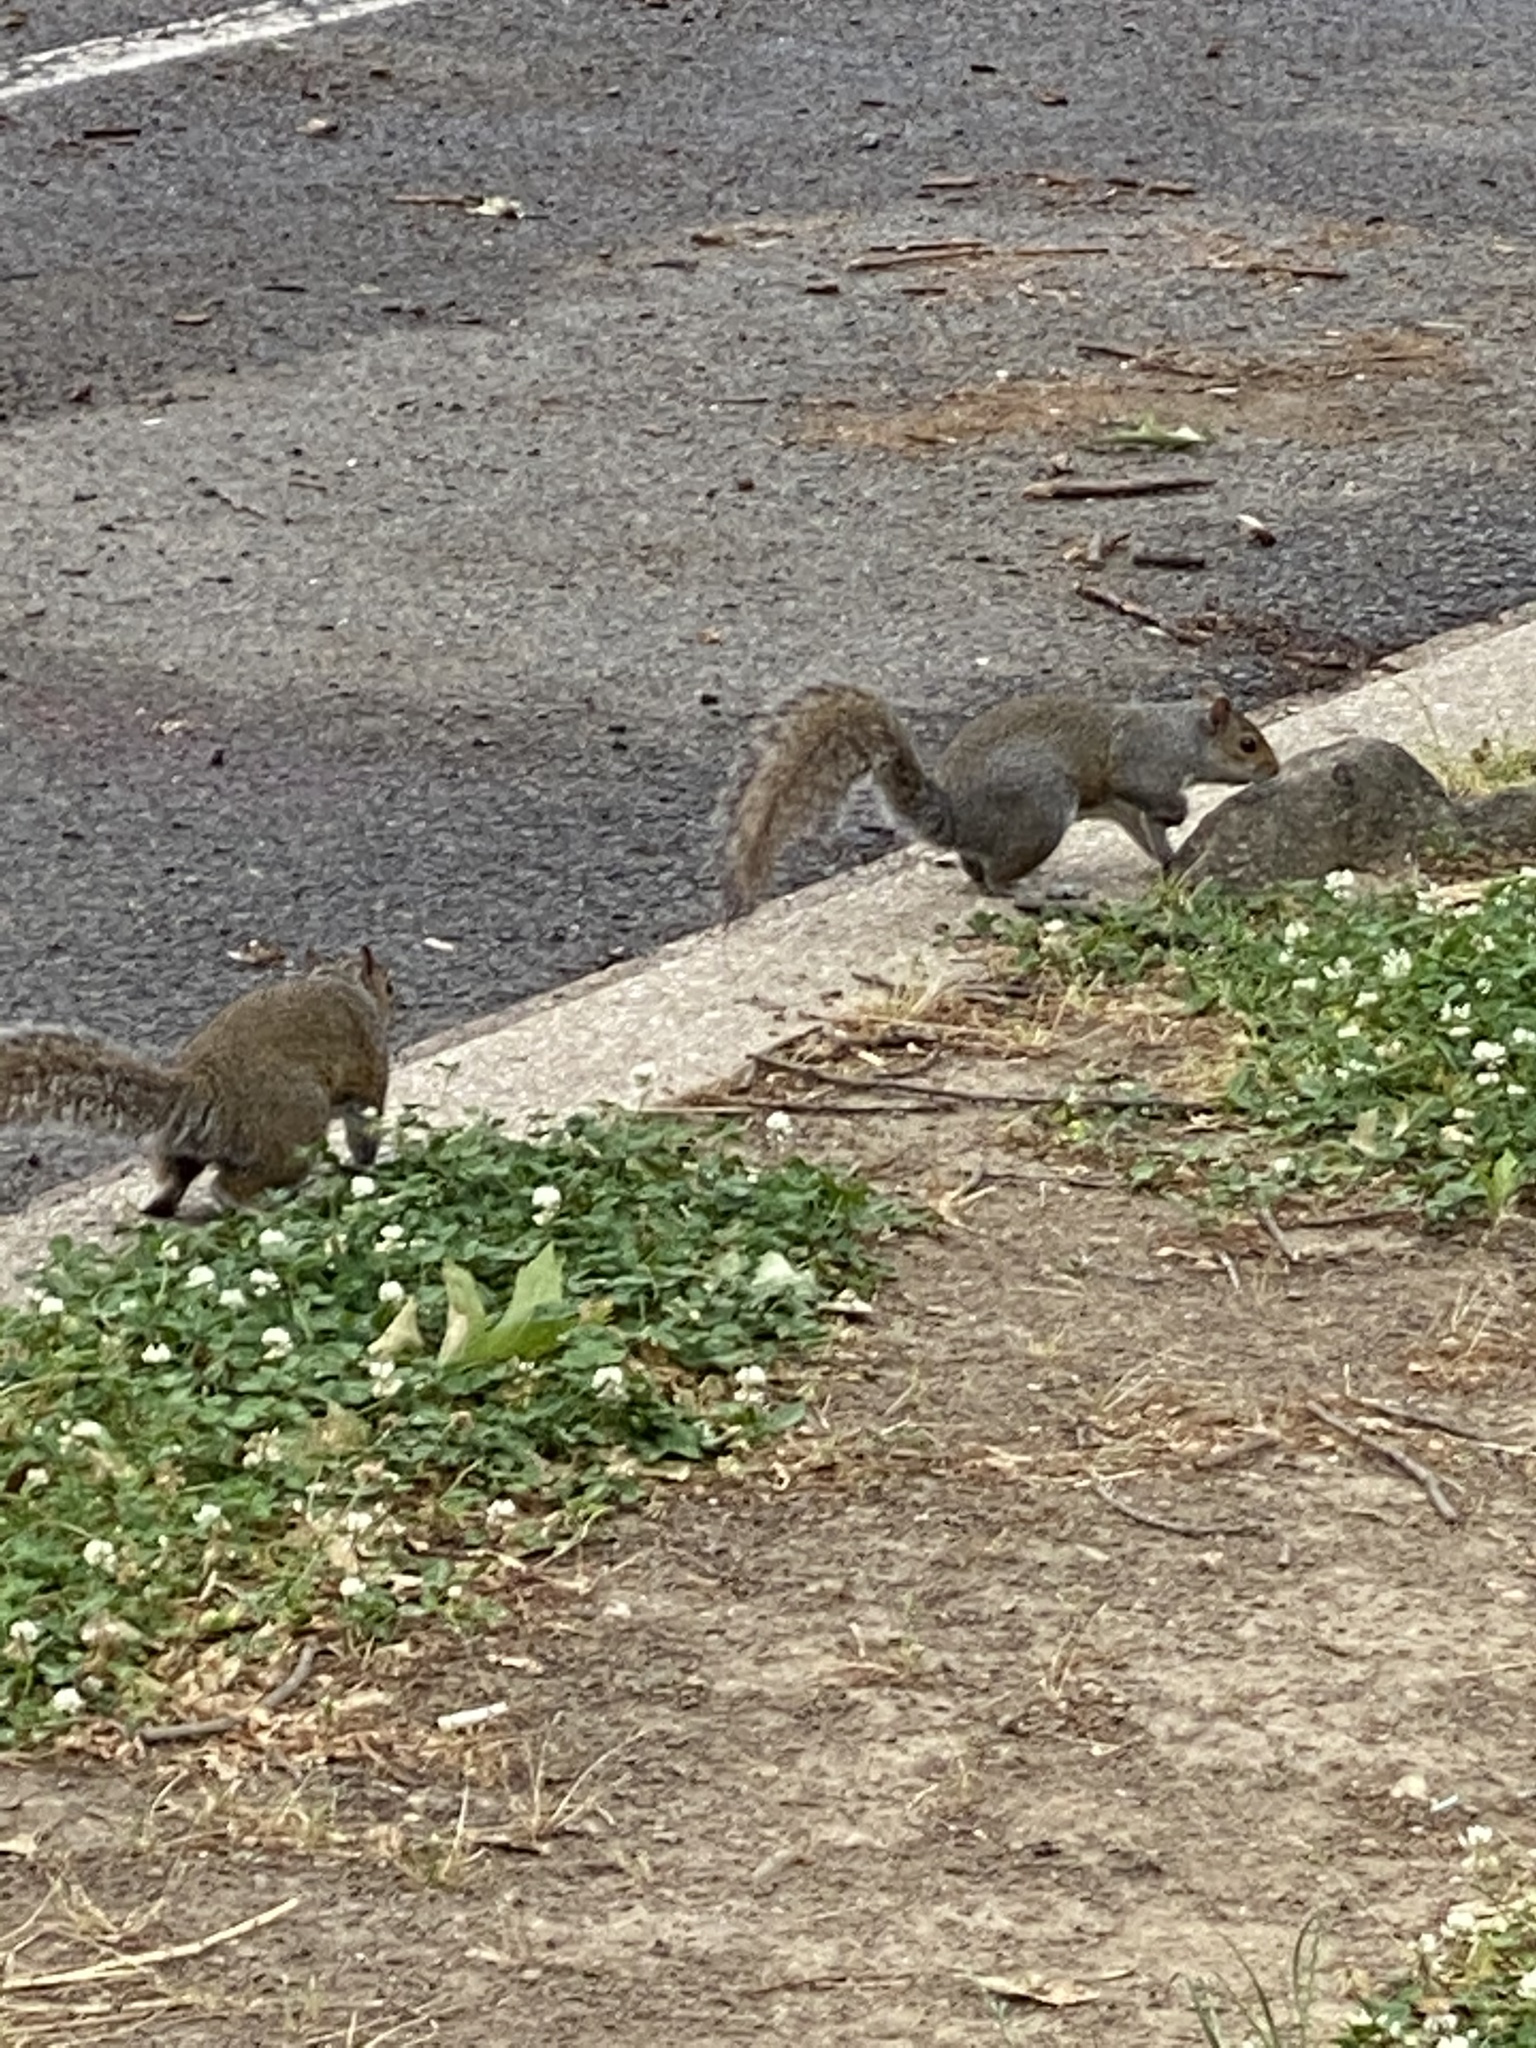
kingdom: Animalia
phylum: Chordata
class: Mammalia
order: Rodentia
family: Sciuridae
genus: Sciurus
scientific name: Sciurus carolinensis
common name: Eastern gray squirrel
